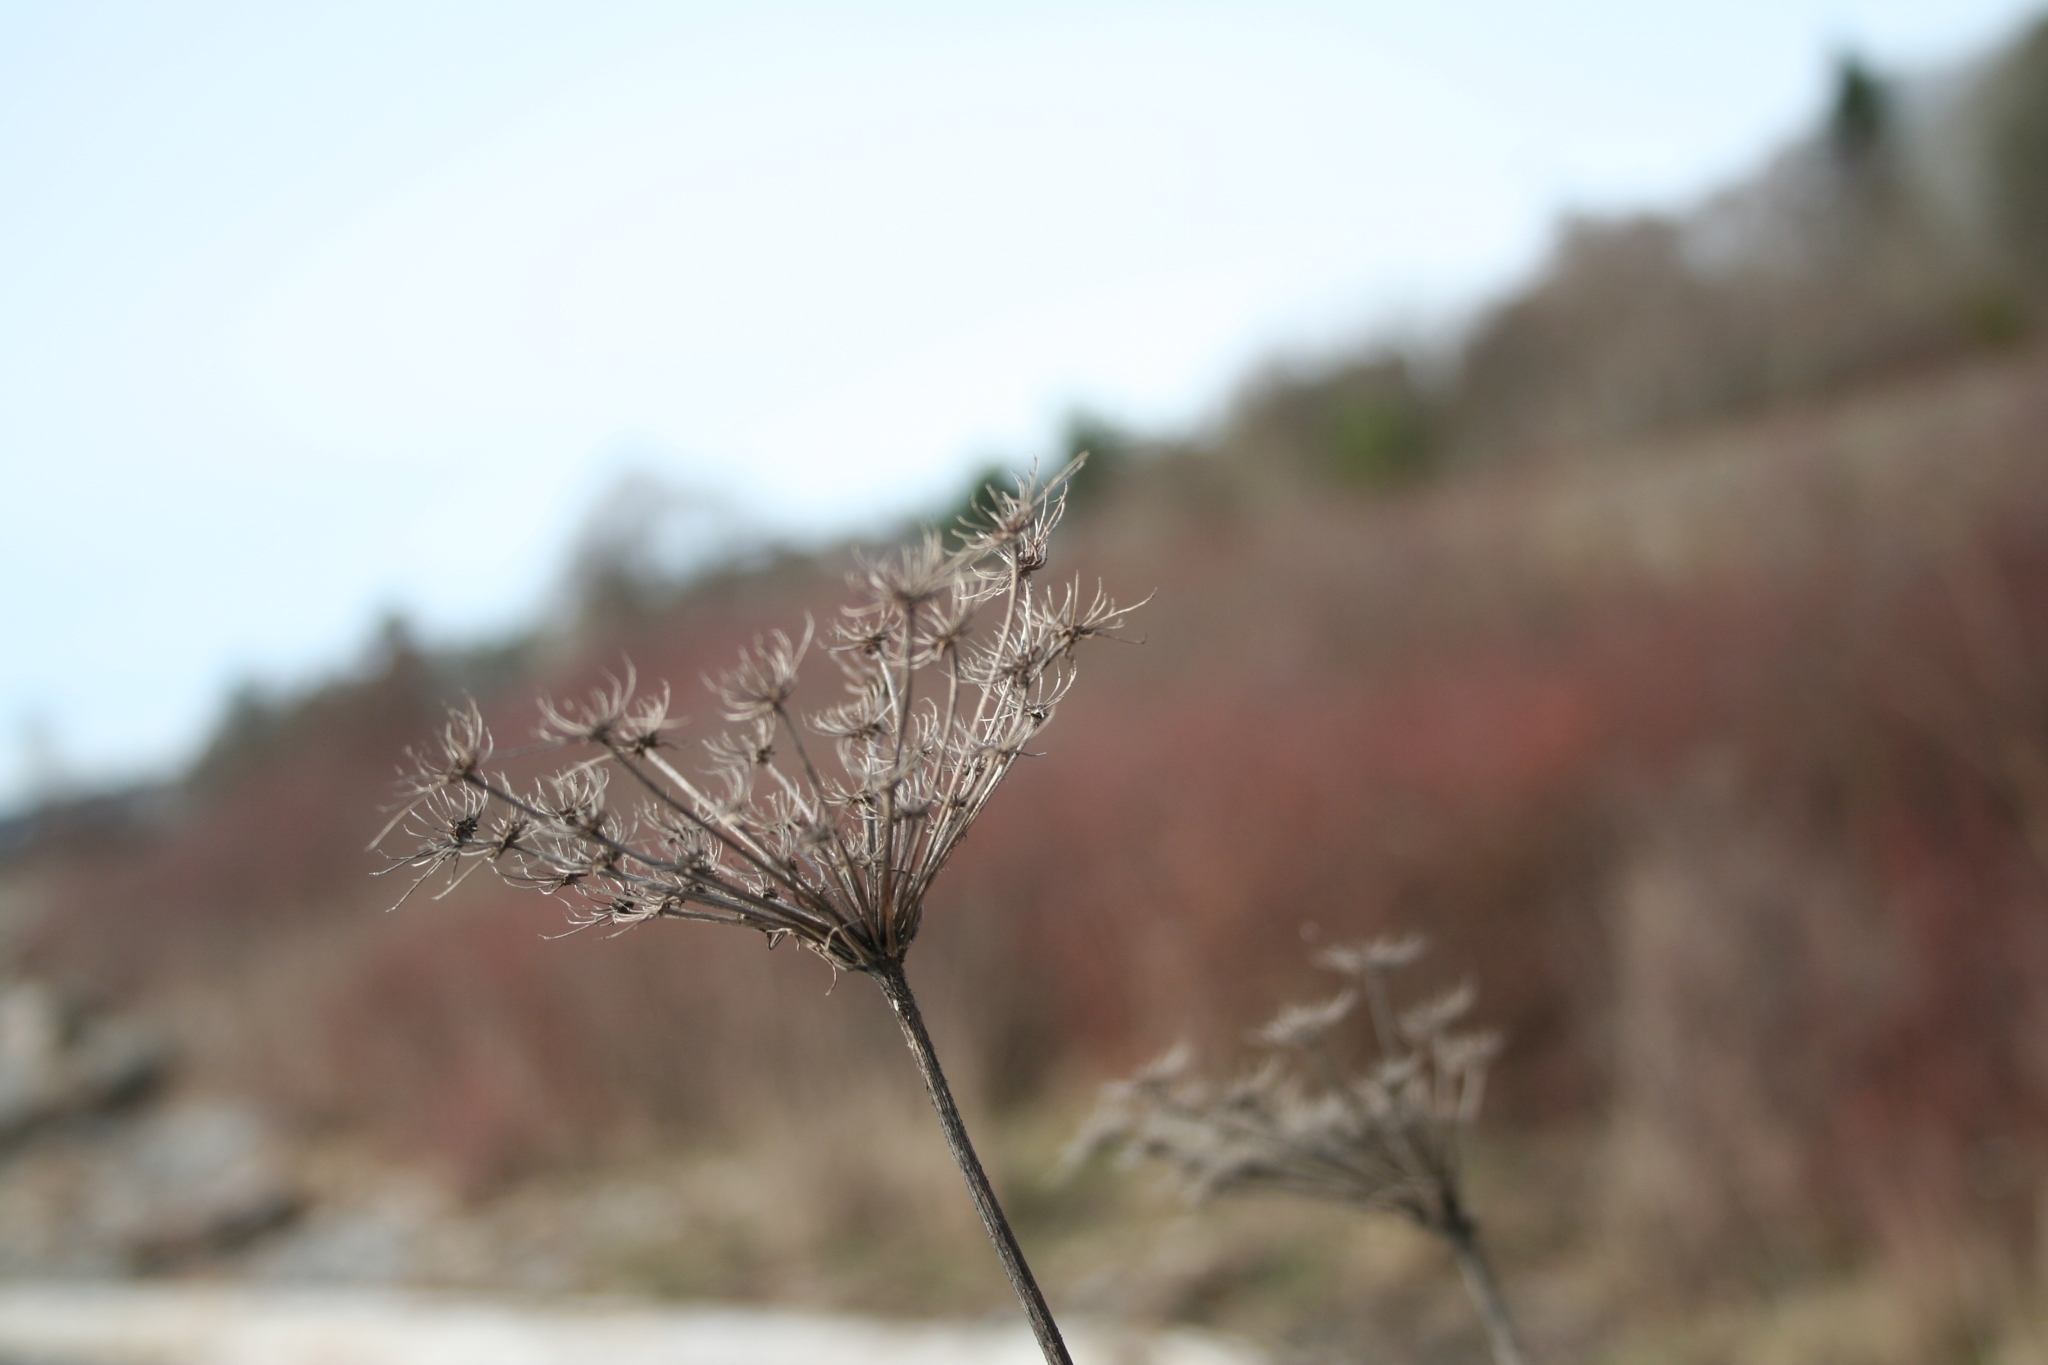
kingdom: Plantae
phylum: Tracheophyta
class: Magnoliopsida
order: Apiales
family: Apiaceae
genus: Daucus
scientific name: Daucus carota
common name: Wild carrot
